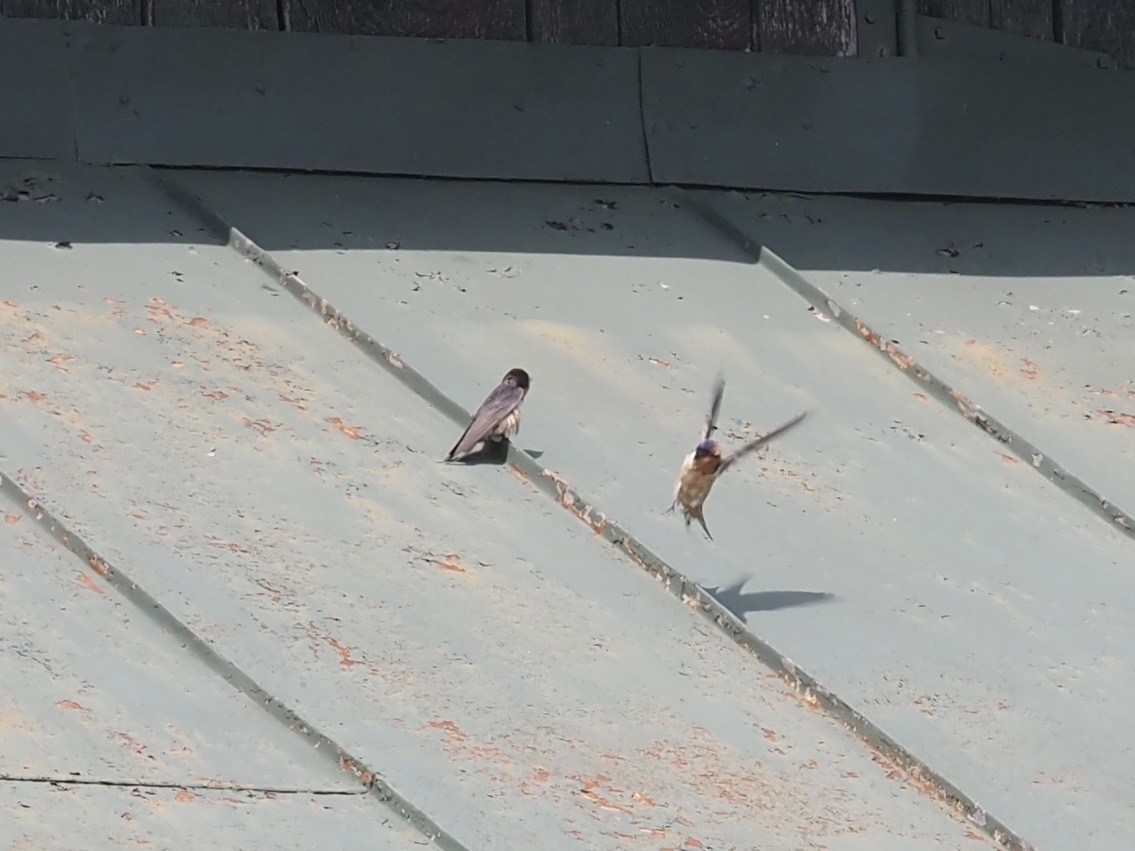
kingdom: Animalia
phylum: Chordata
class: Aves
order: Passeriformes
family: Hirundinidae
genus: Hirundo
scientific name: Hirundo rustica
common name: Barn swallow
